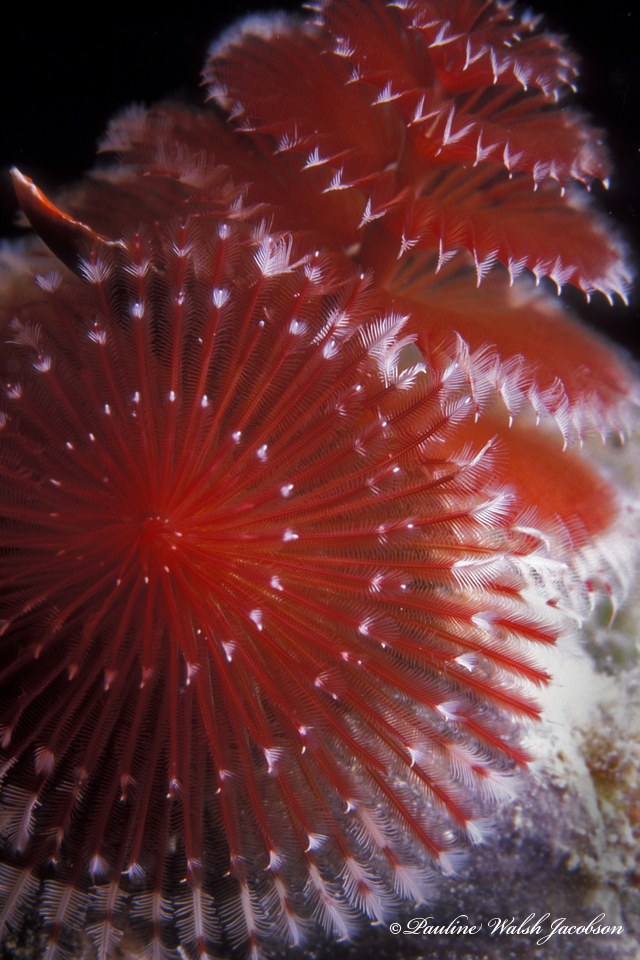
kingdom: Animalia
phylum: Annelida
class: Polychaeta
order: Sabellida
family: Serpulidae
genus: Spirobranchus
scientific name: Spirobranchus giganteus
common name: Christmas tree worm
